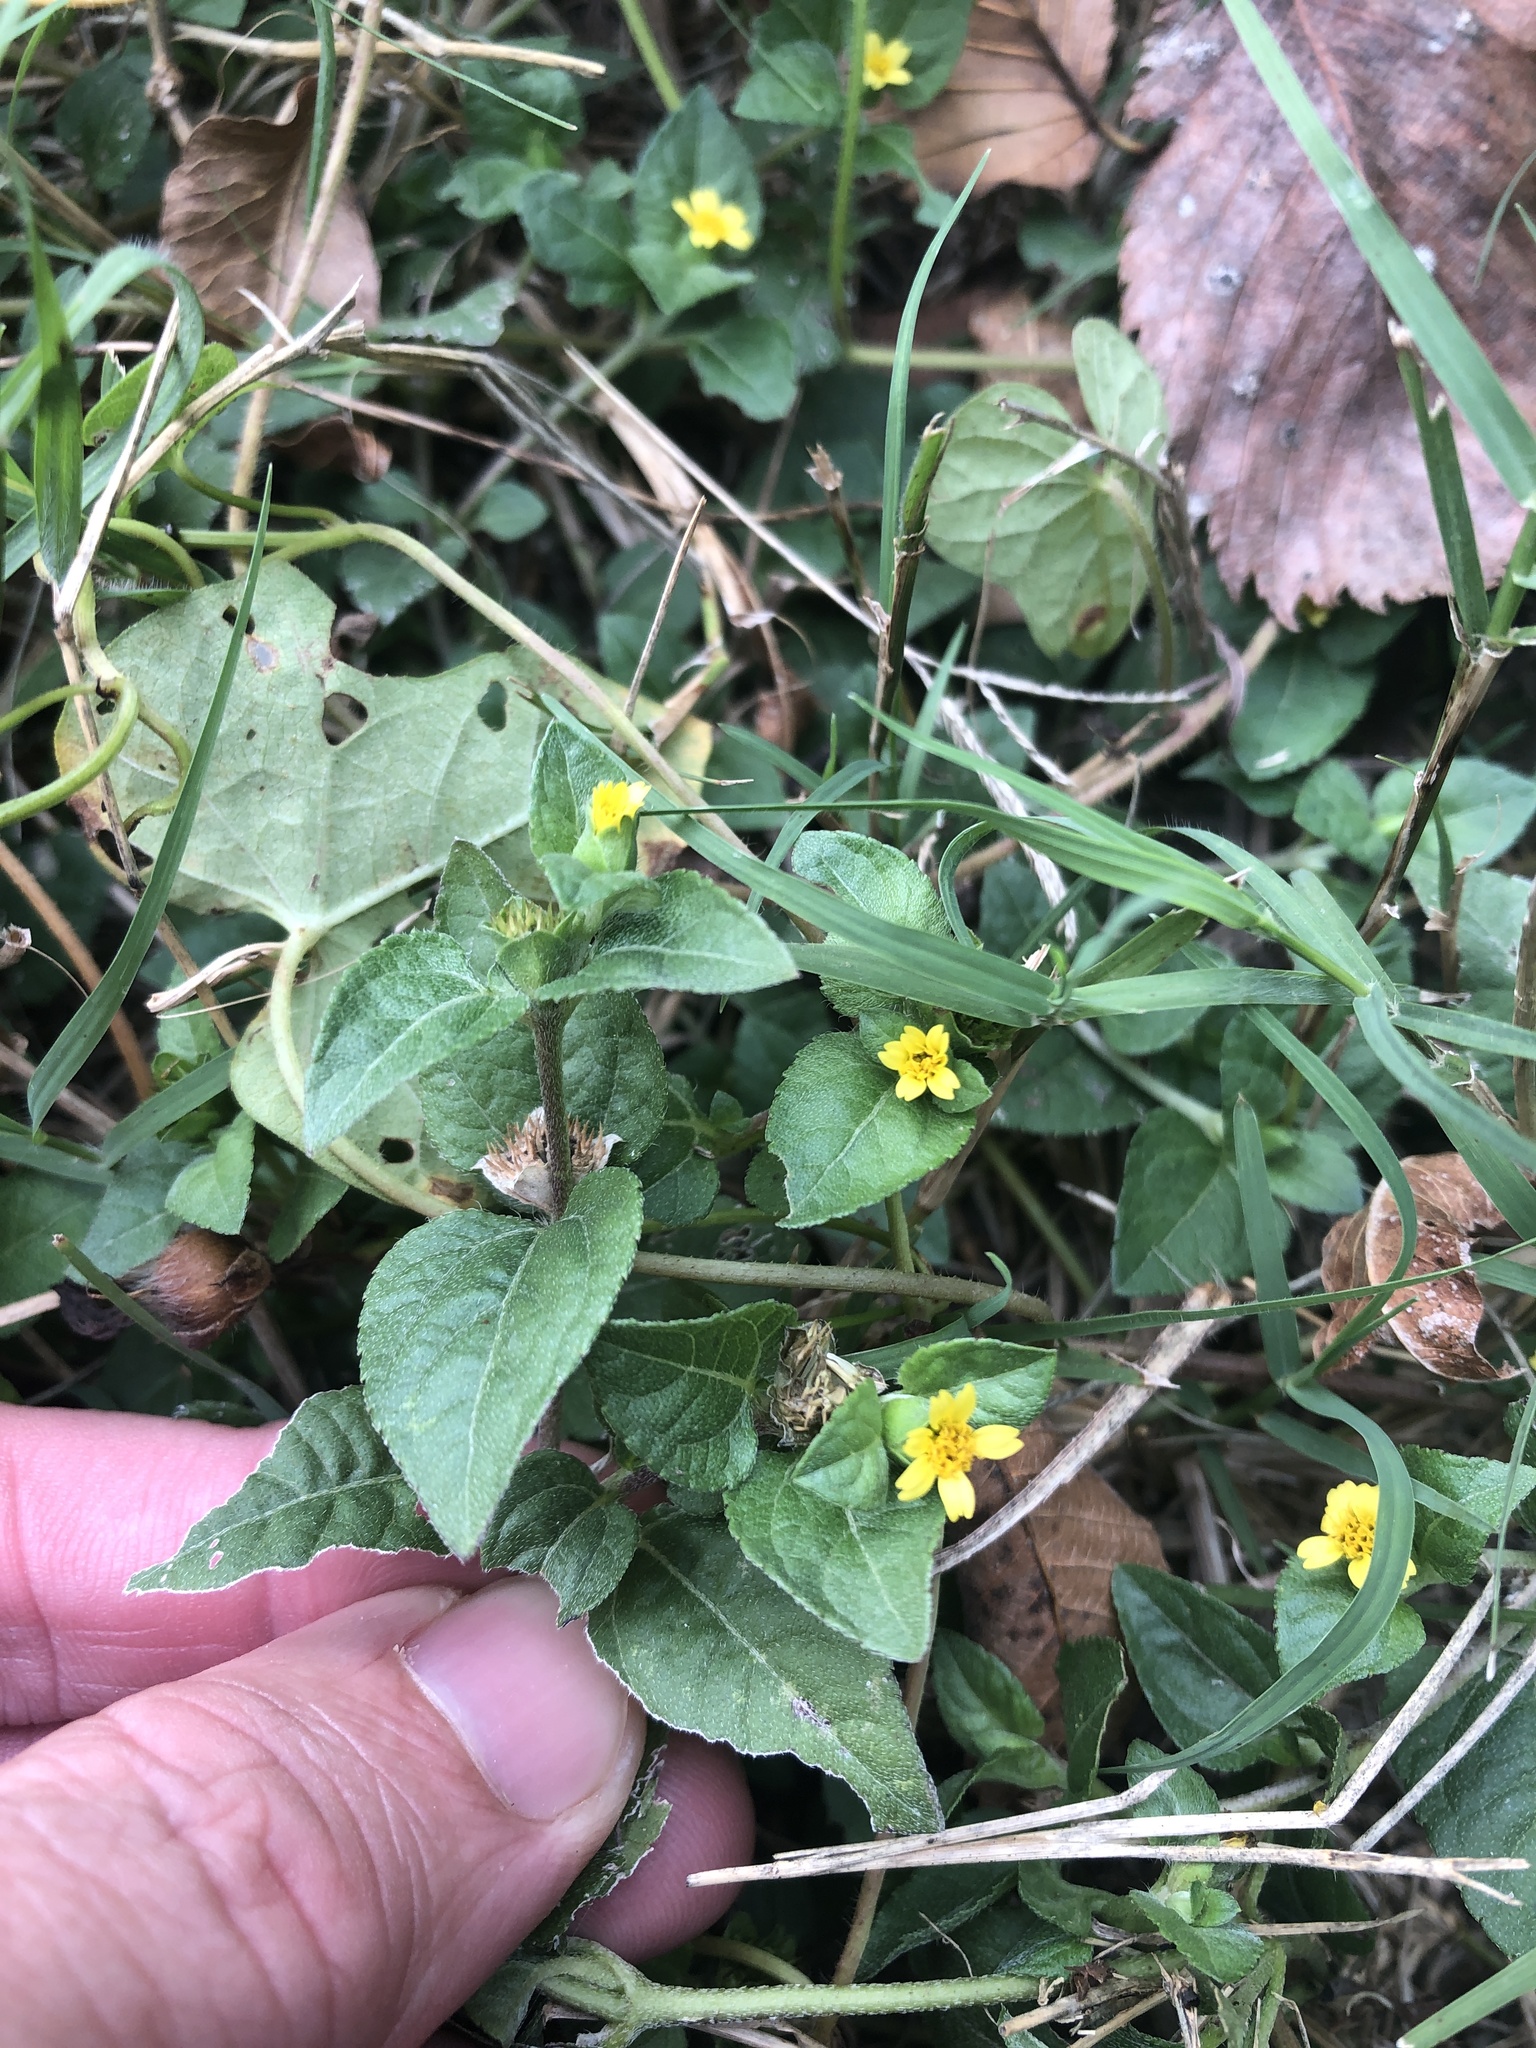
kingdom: Plantae
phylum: Tracheophyta
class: Magnoliopsida
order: Asterales
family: Asteraceae
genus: Calyptocarpus
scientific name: Calyptocarpus vialis
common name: Straggler daisy
